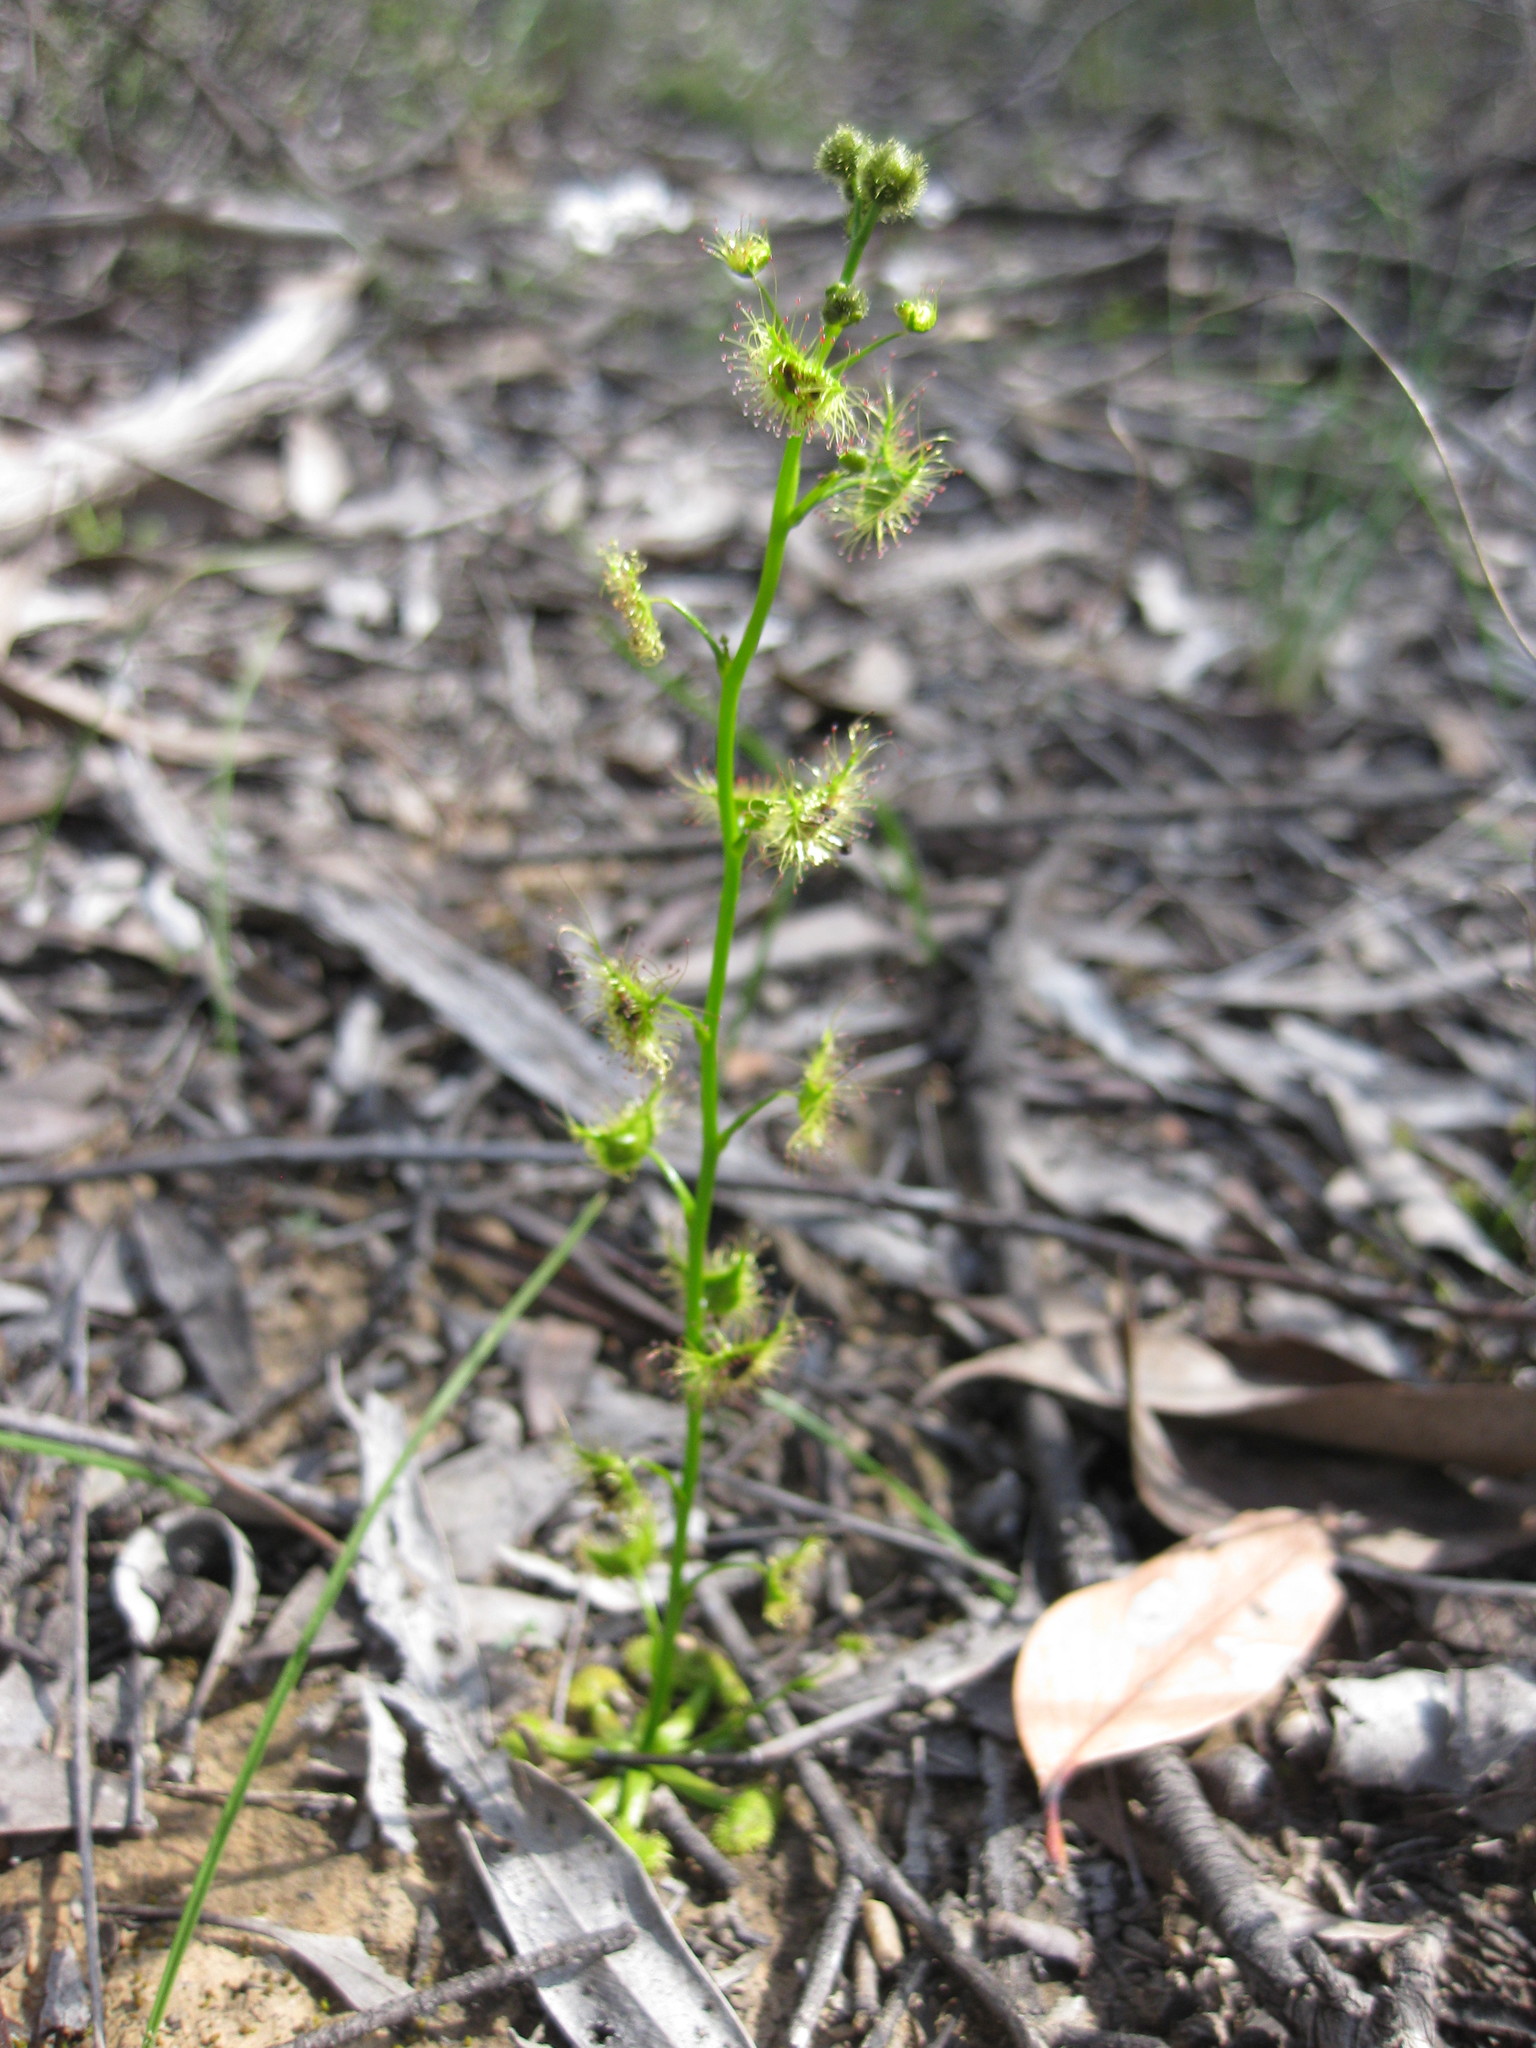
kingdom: Plantae
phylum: Tracheophyta
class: Magnoliopsida
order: Caryophyllales
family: Droseraceae
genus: Drosera
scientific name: Drosera gunniana
